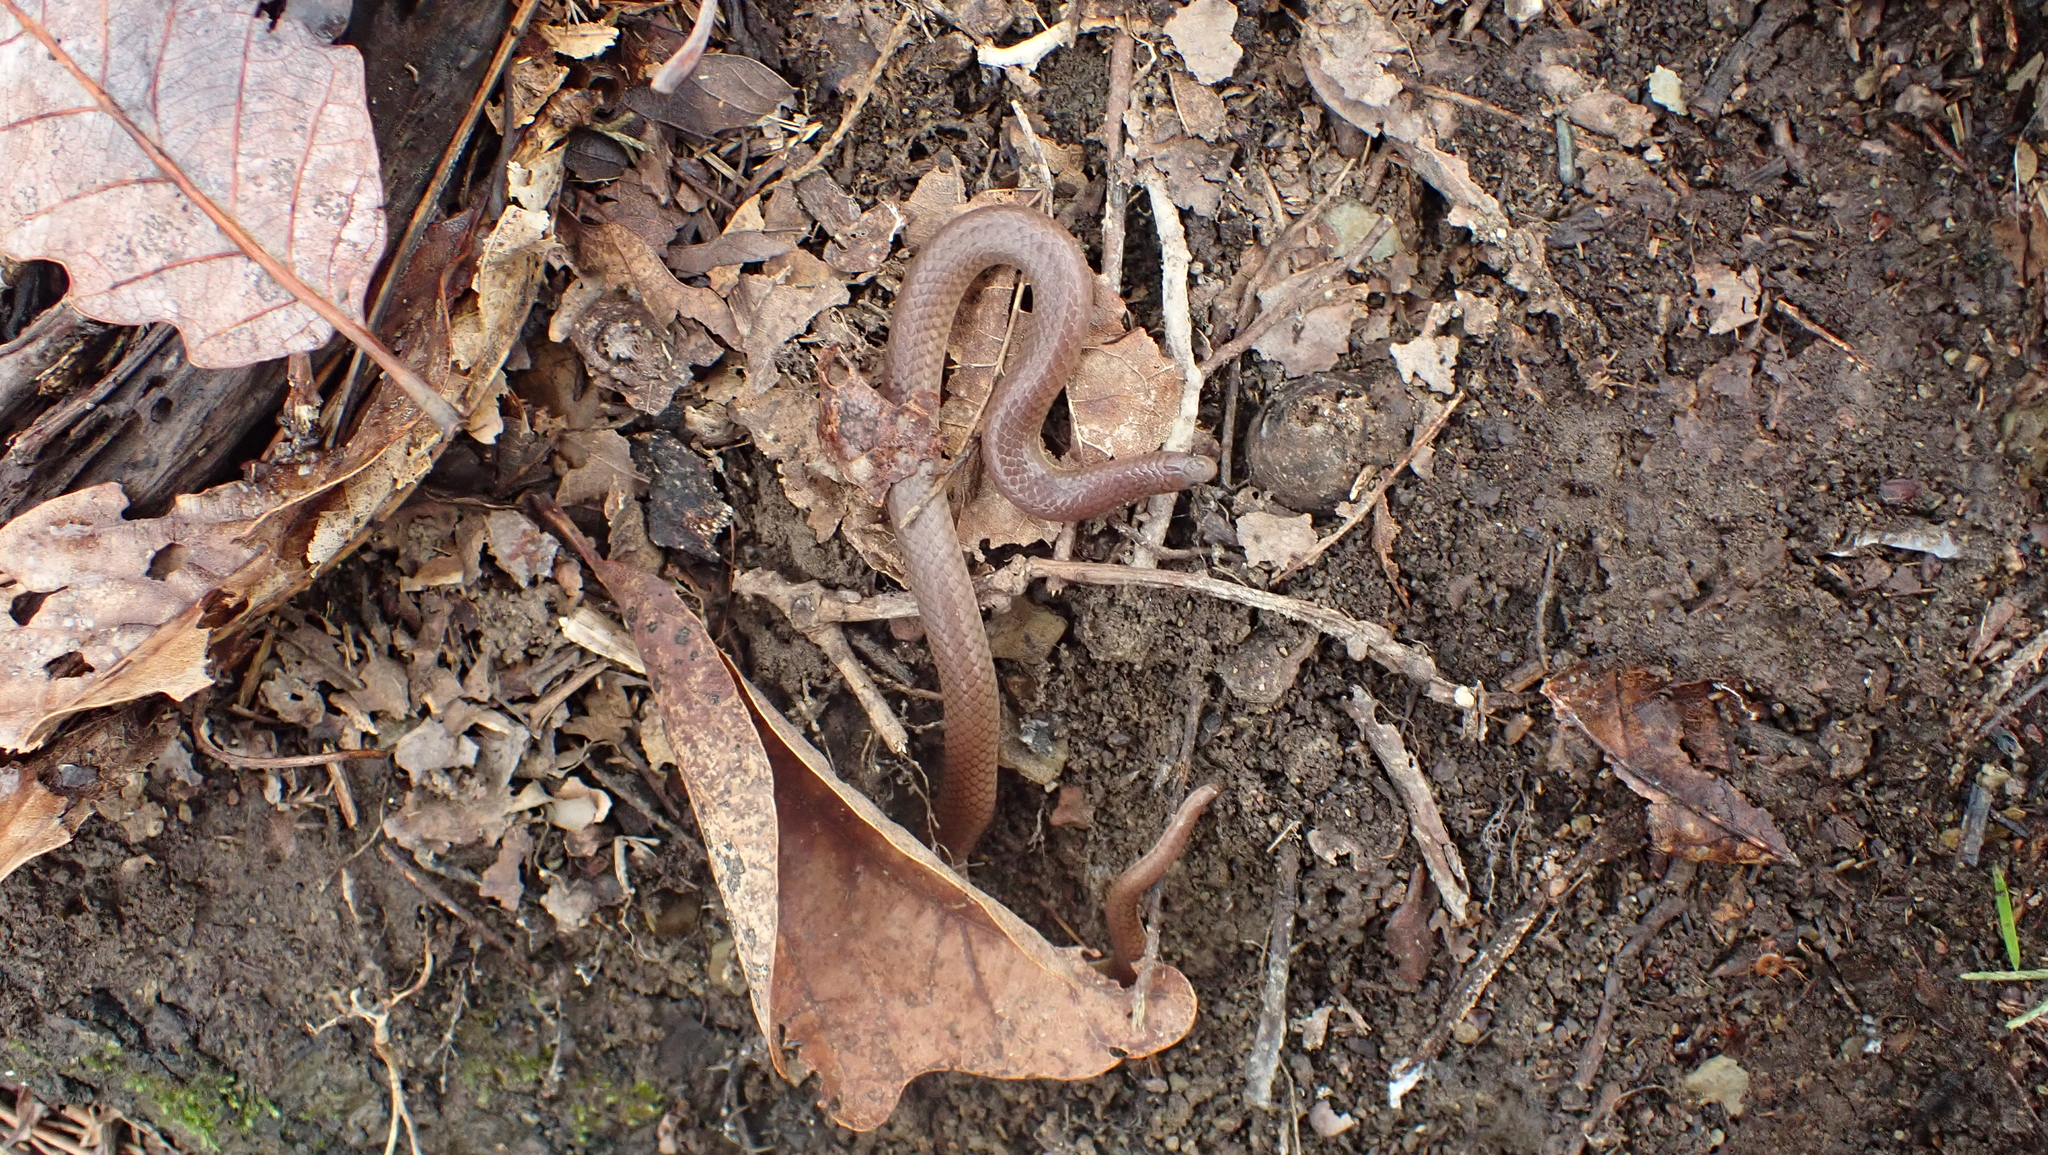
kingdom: Animalia
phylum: Chordata
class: Squamata
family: Colubridae
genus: Carphophis
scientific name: Carphophis amoenus
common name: Eastern worm snake
